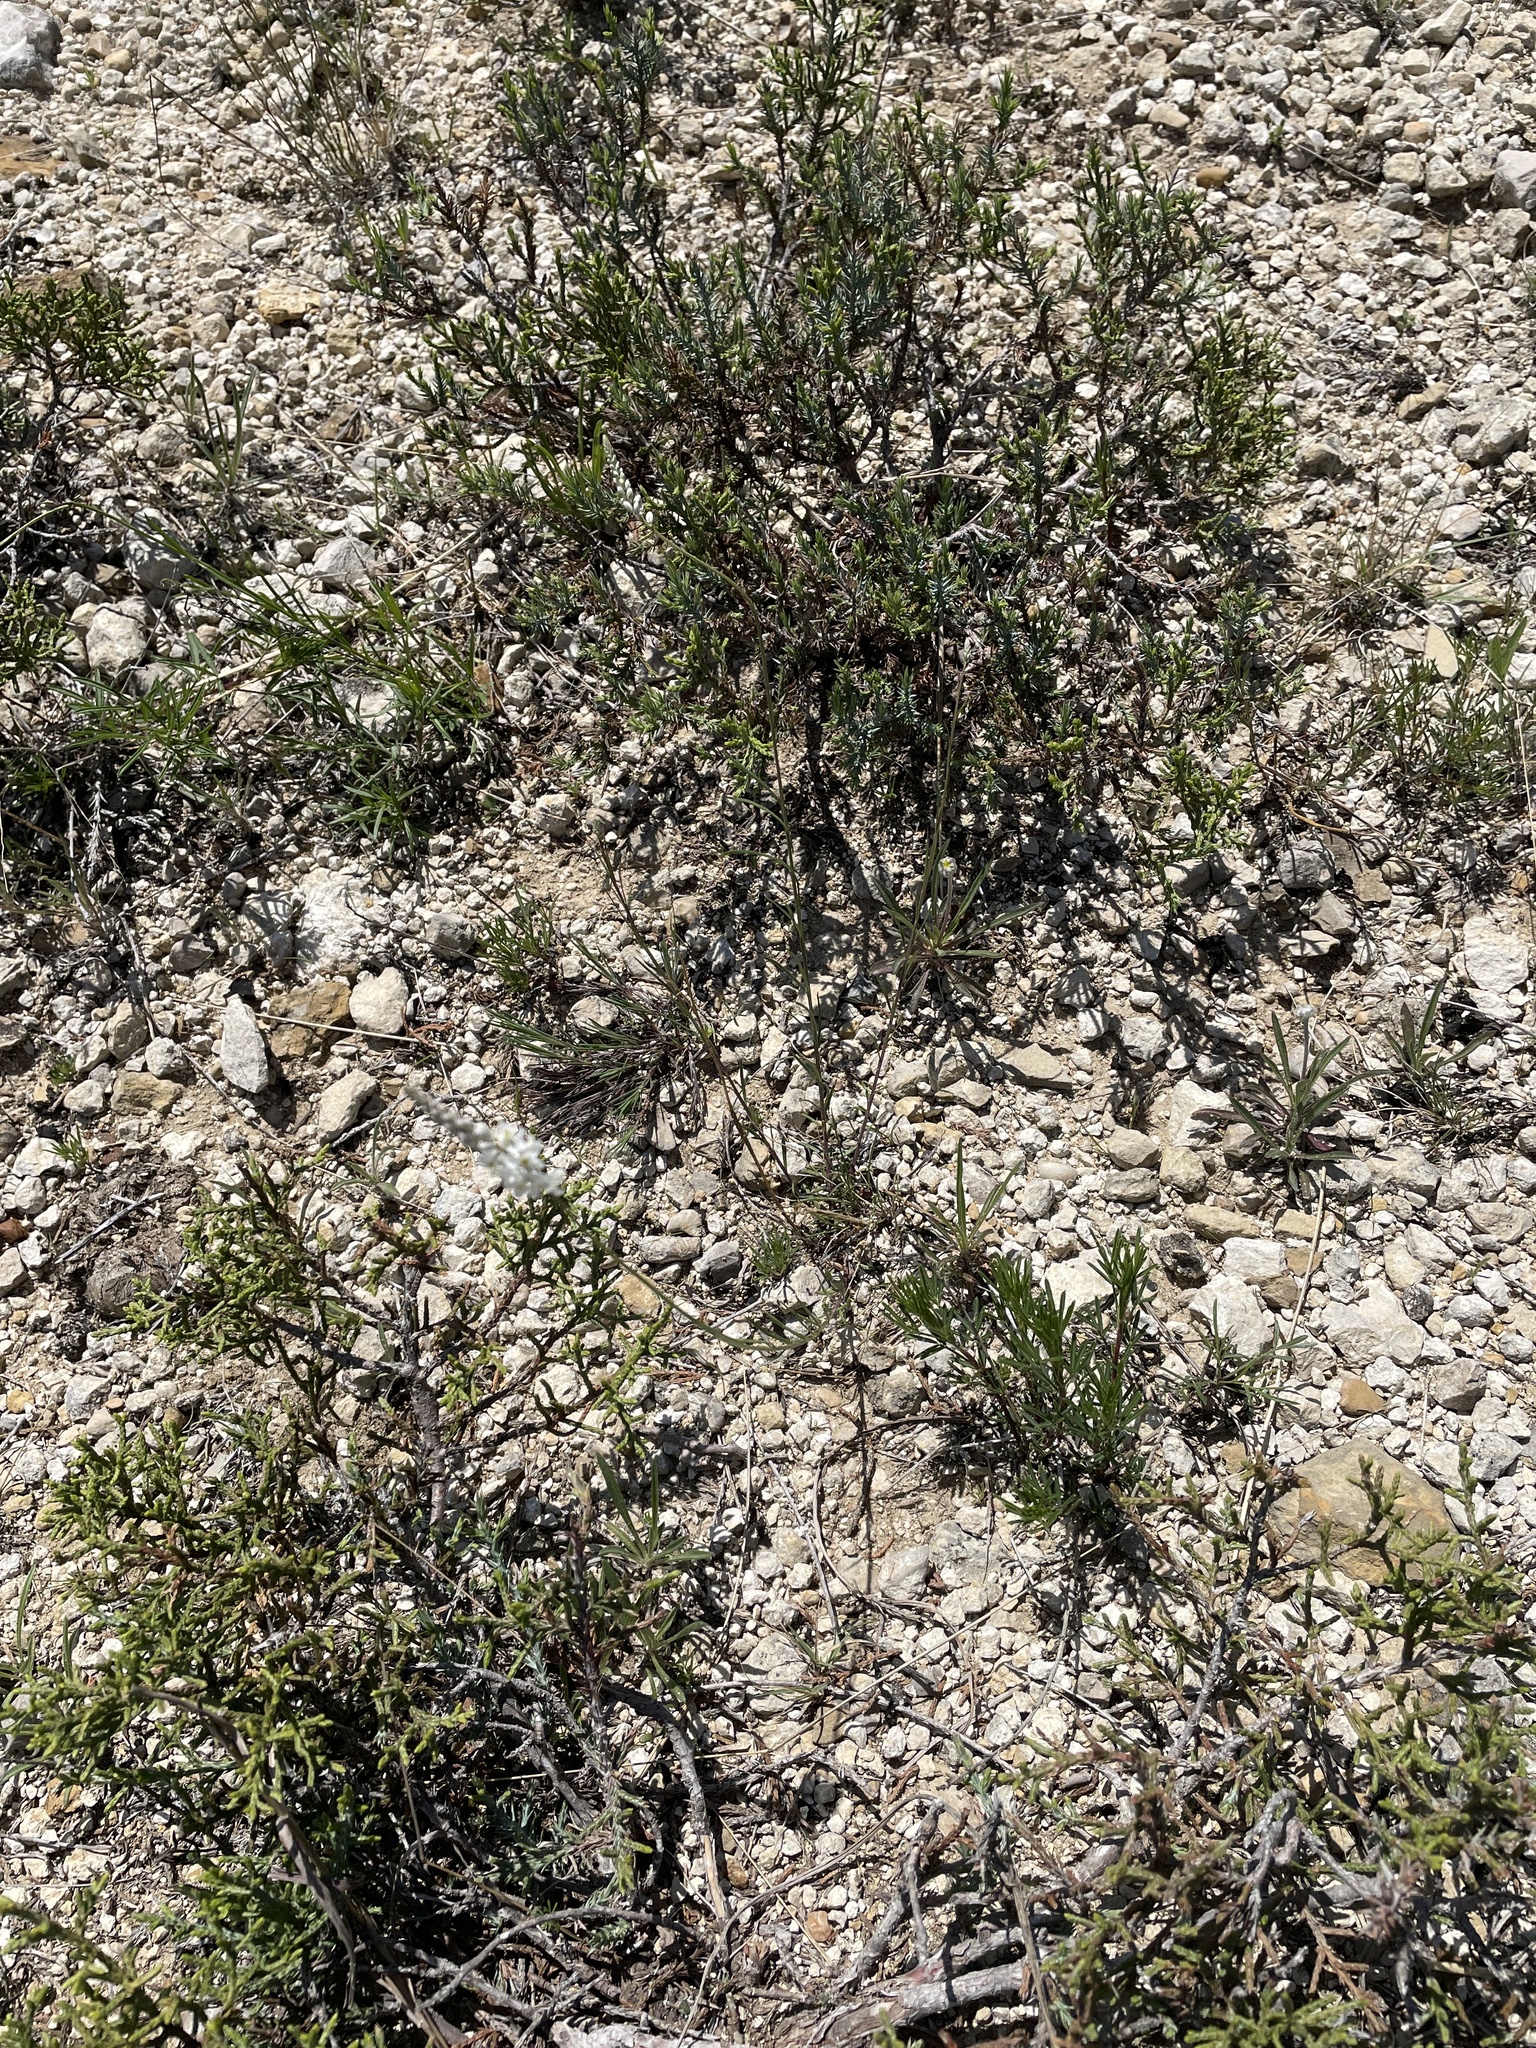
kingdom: Plantae
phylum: Tracheophyta
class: Magnoliopsida
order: Fabales
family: Polygalaceae
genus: Polygala
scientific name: Polygala alba
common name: White milkwort
